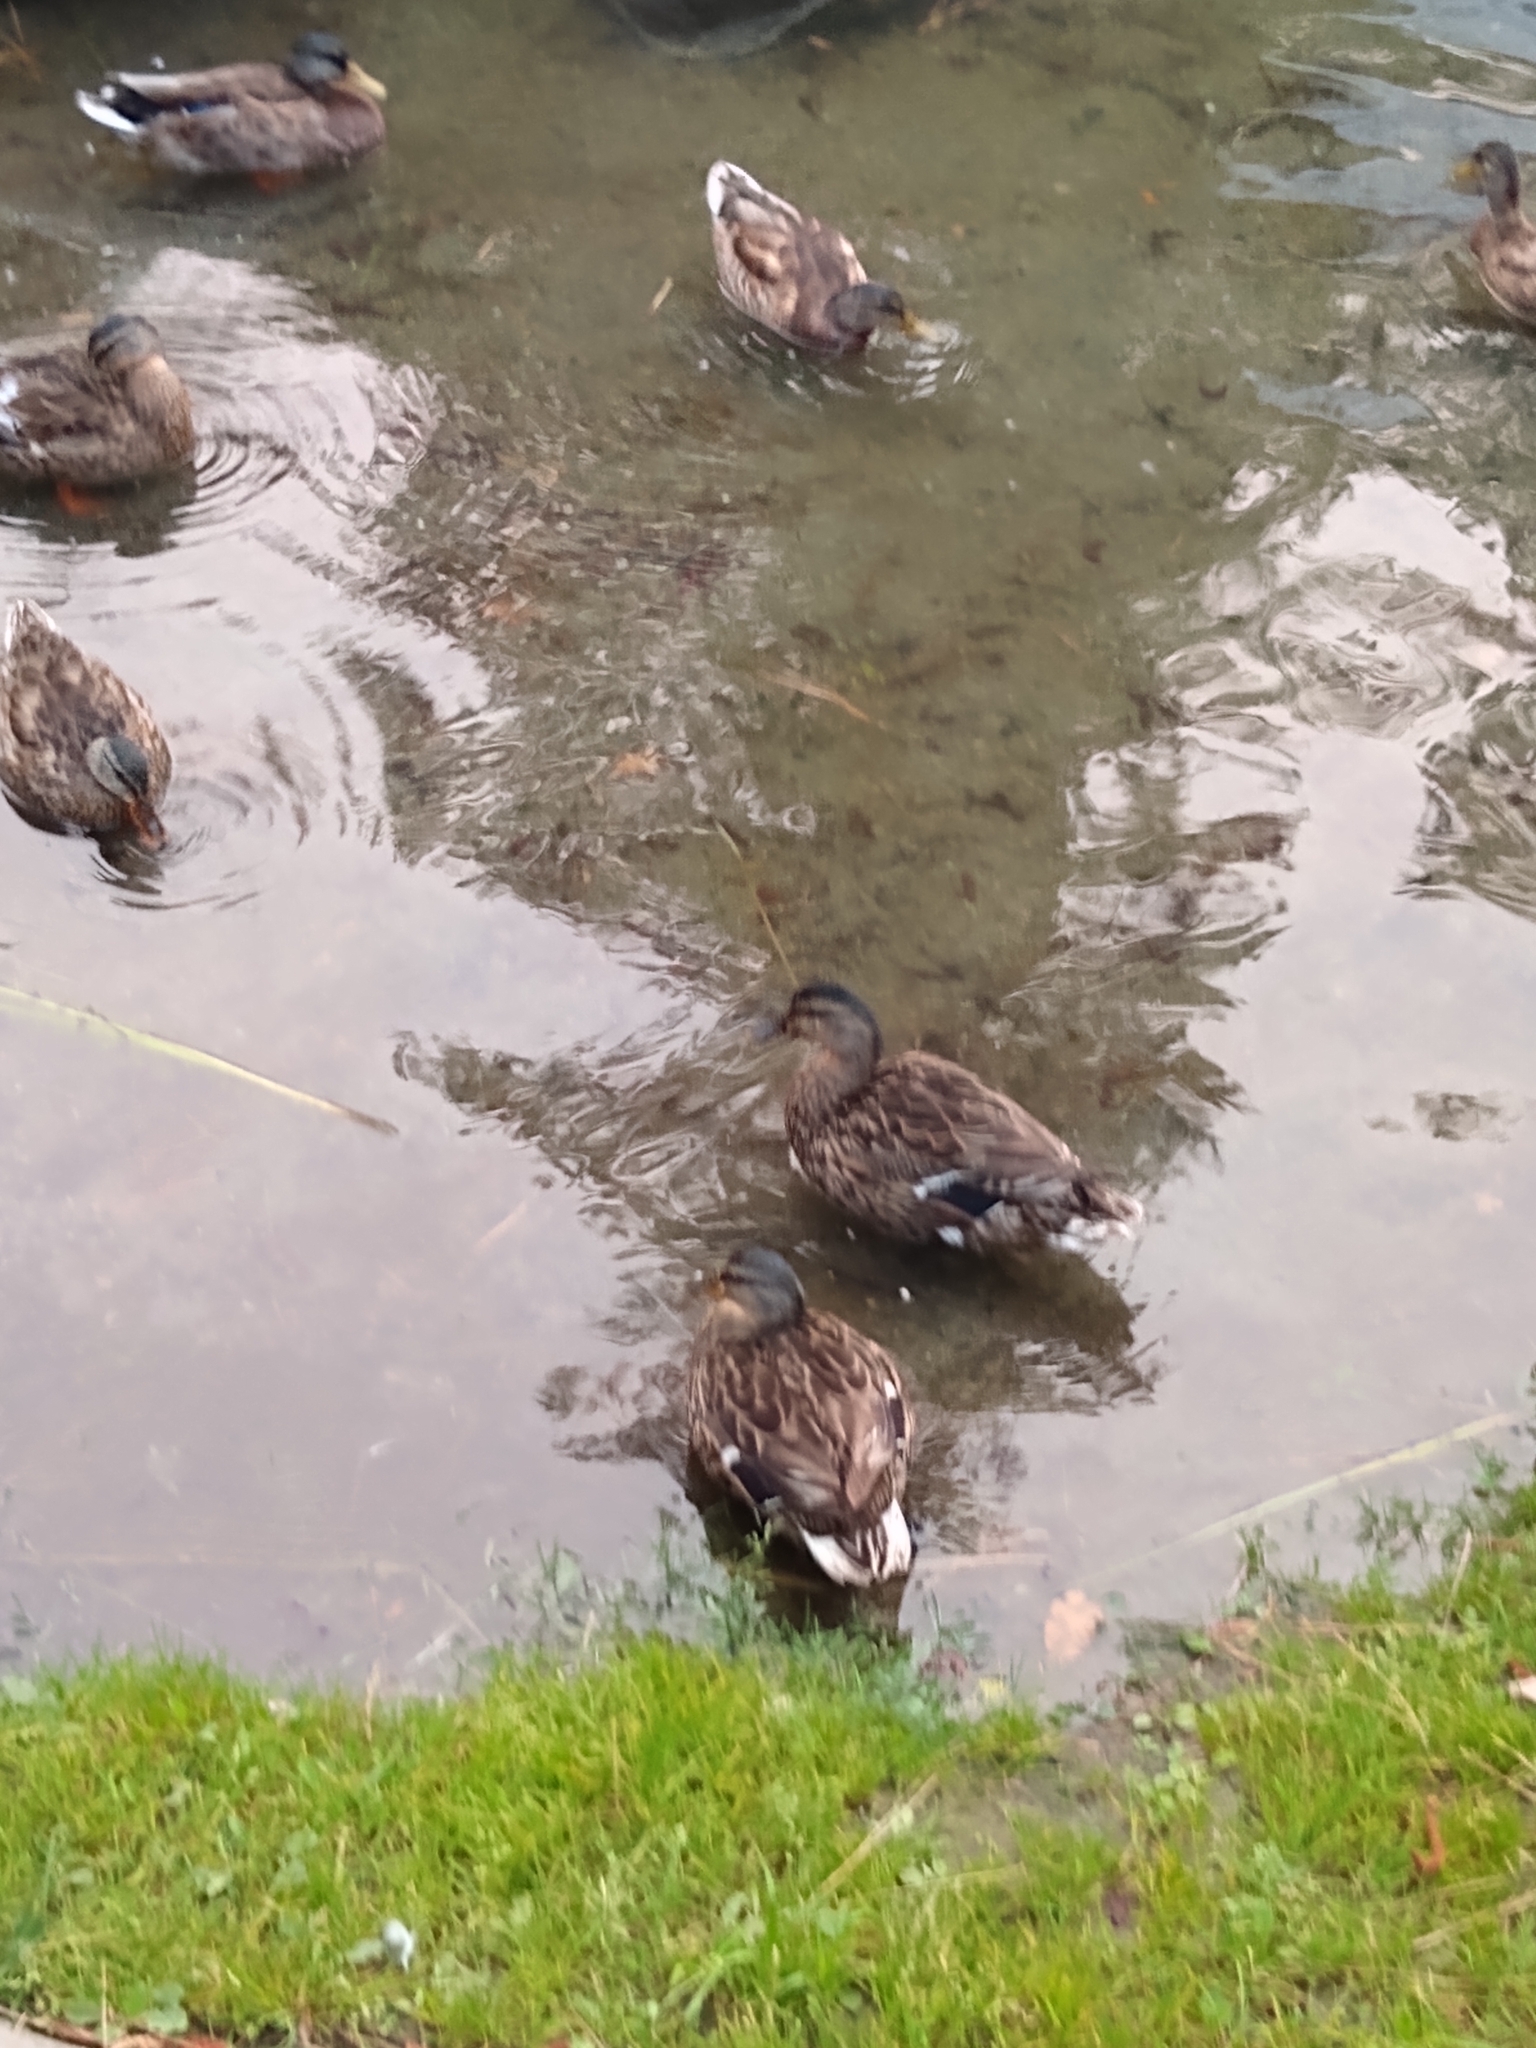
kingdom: Animalia
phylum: Chordata
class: Aves
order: Anseriformes
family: Anatidae
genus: Anas
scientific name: Anas platyrhynchos
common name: Mallard
